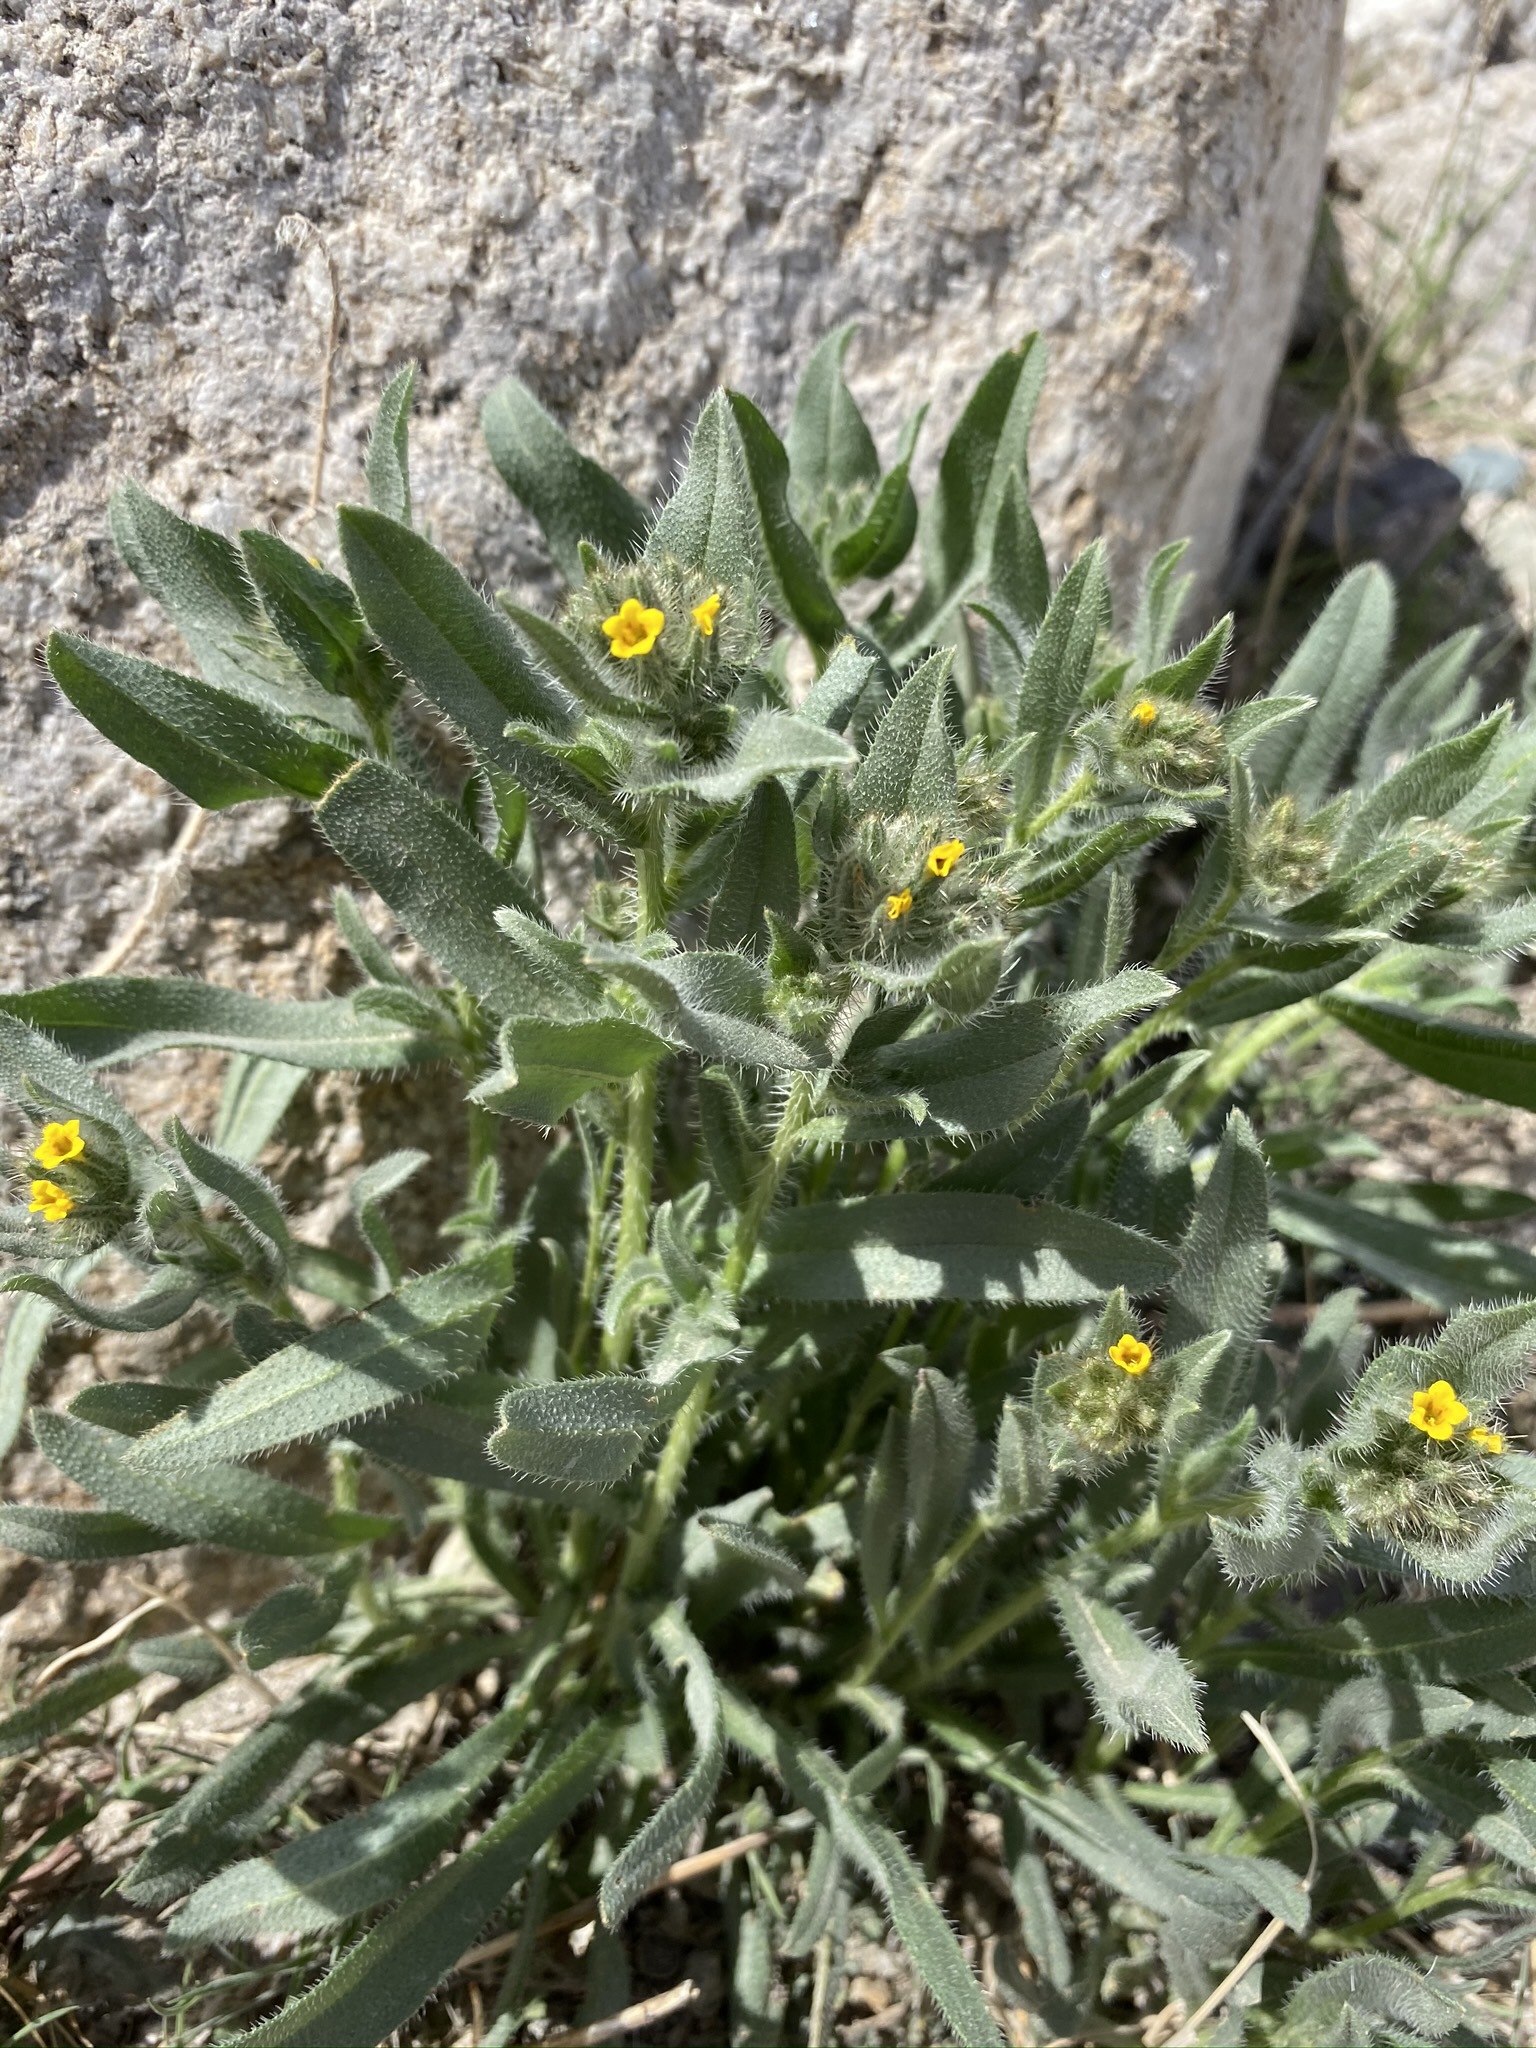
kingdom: Plantae
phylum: Tracheophyta
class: Magnoliopsida
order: Boraginales
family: Boraginaceae
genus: Amsinckia
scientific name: Amsinckia tessellata
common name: Tessellate fiddleneck
